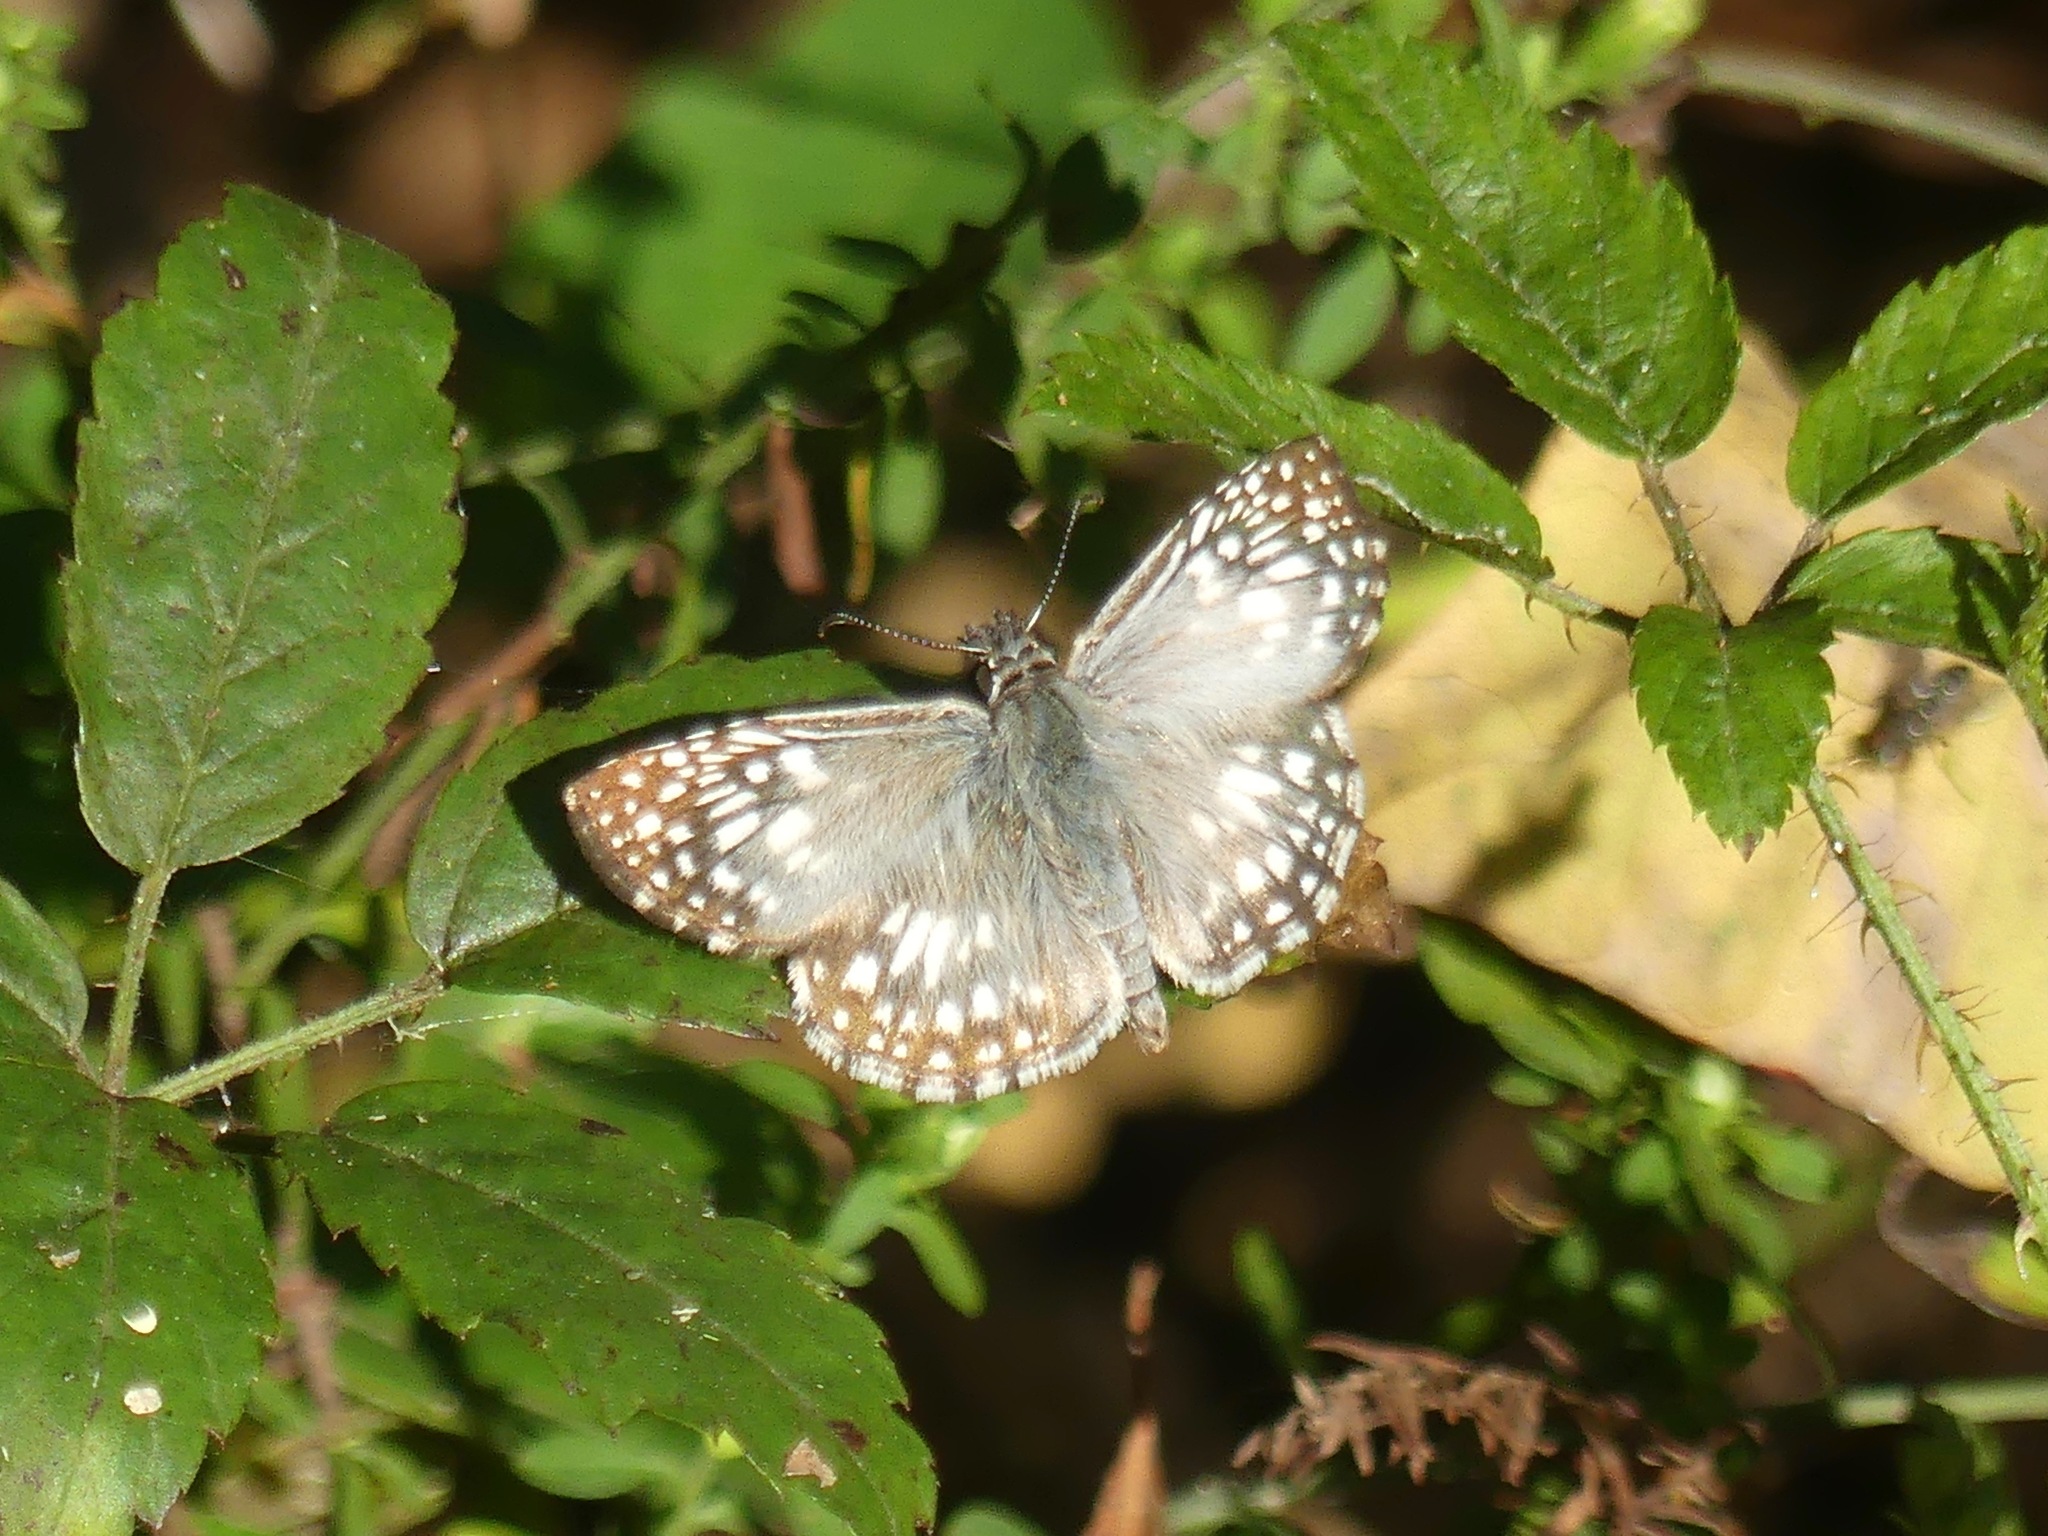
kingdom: Animalia
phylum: Arthropoda
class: Insecta
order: Lepidoptera
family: Hesperiidae
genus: Pyrgus
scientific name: Pyrgus oileus
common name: Tropical checkered-skipper
